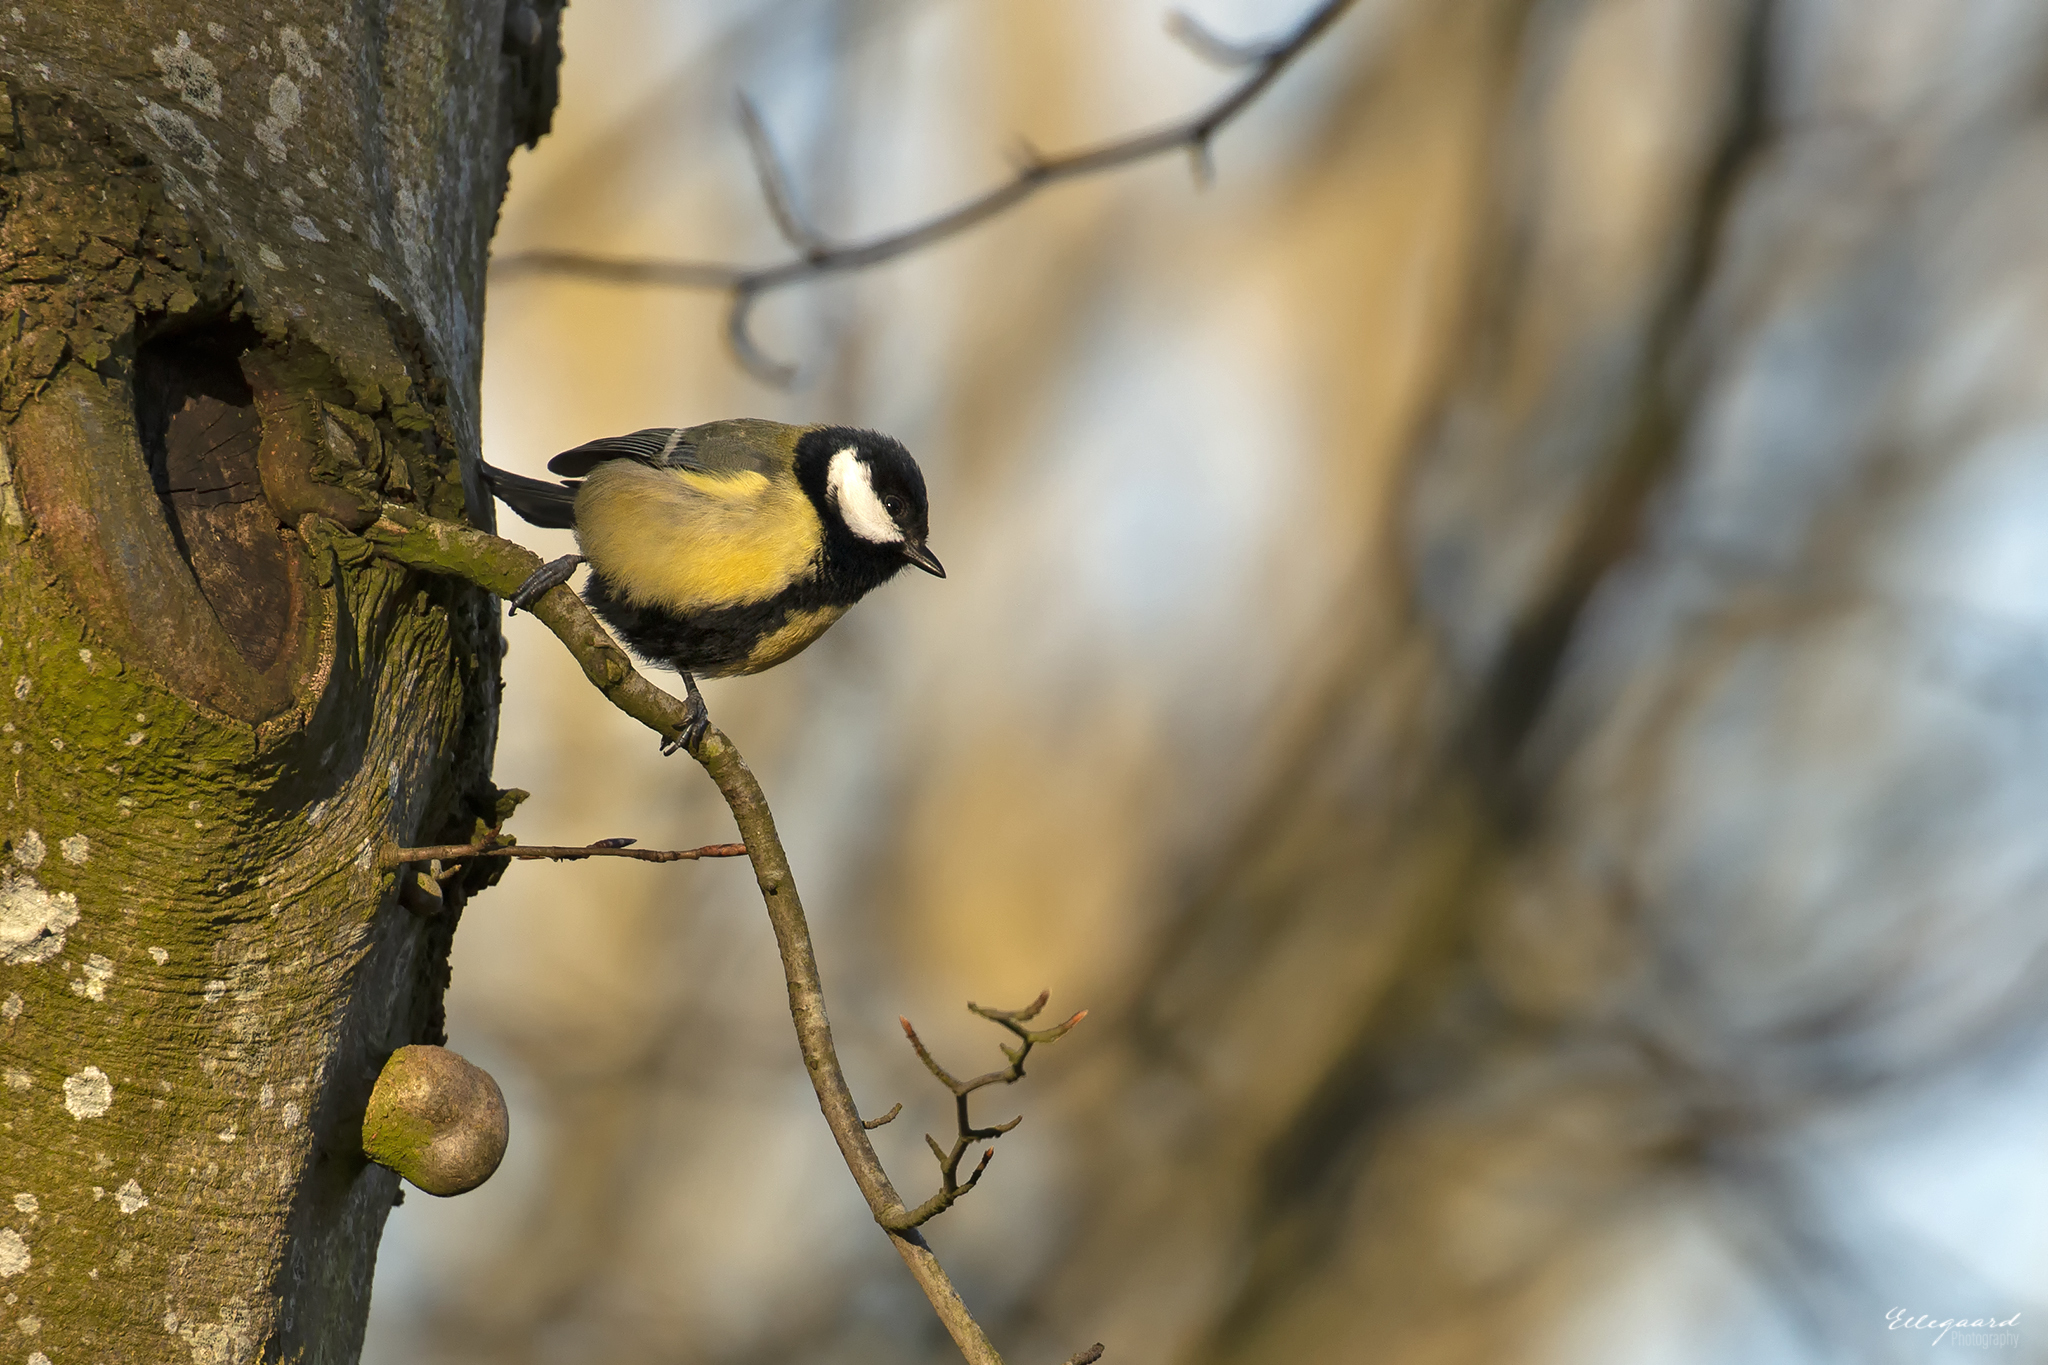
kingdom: Animalia
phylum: Chordata
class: Aves
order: Passeriformes
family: Paridae
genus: Parus
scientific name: Parus major
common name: Great tit
